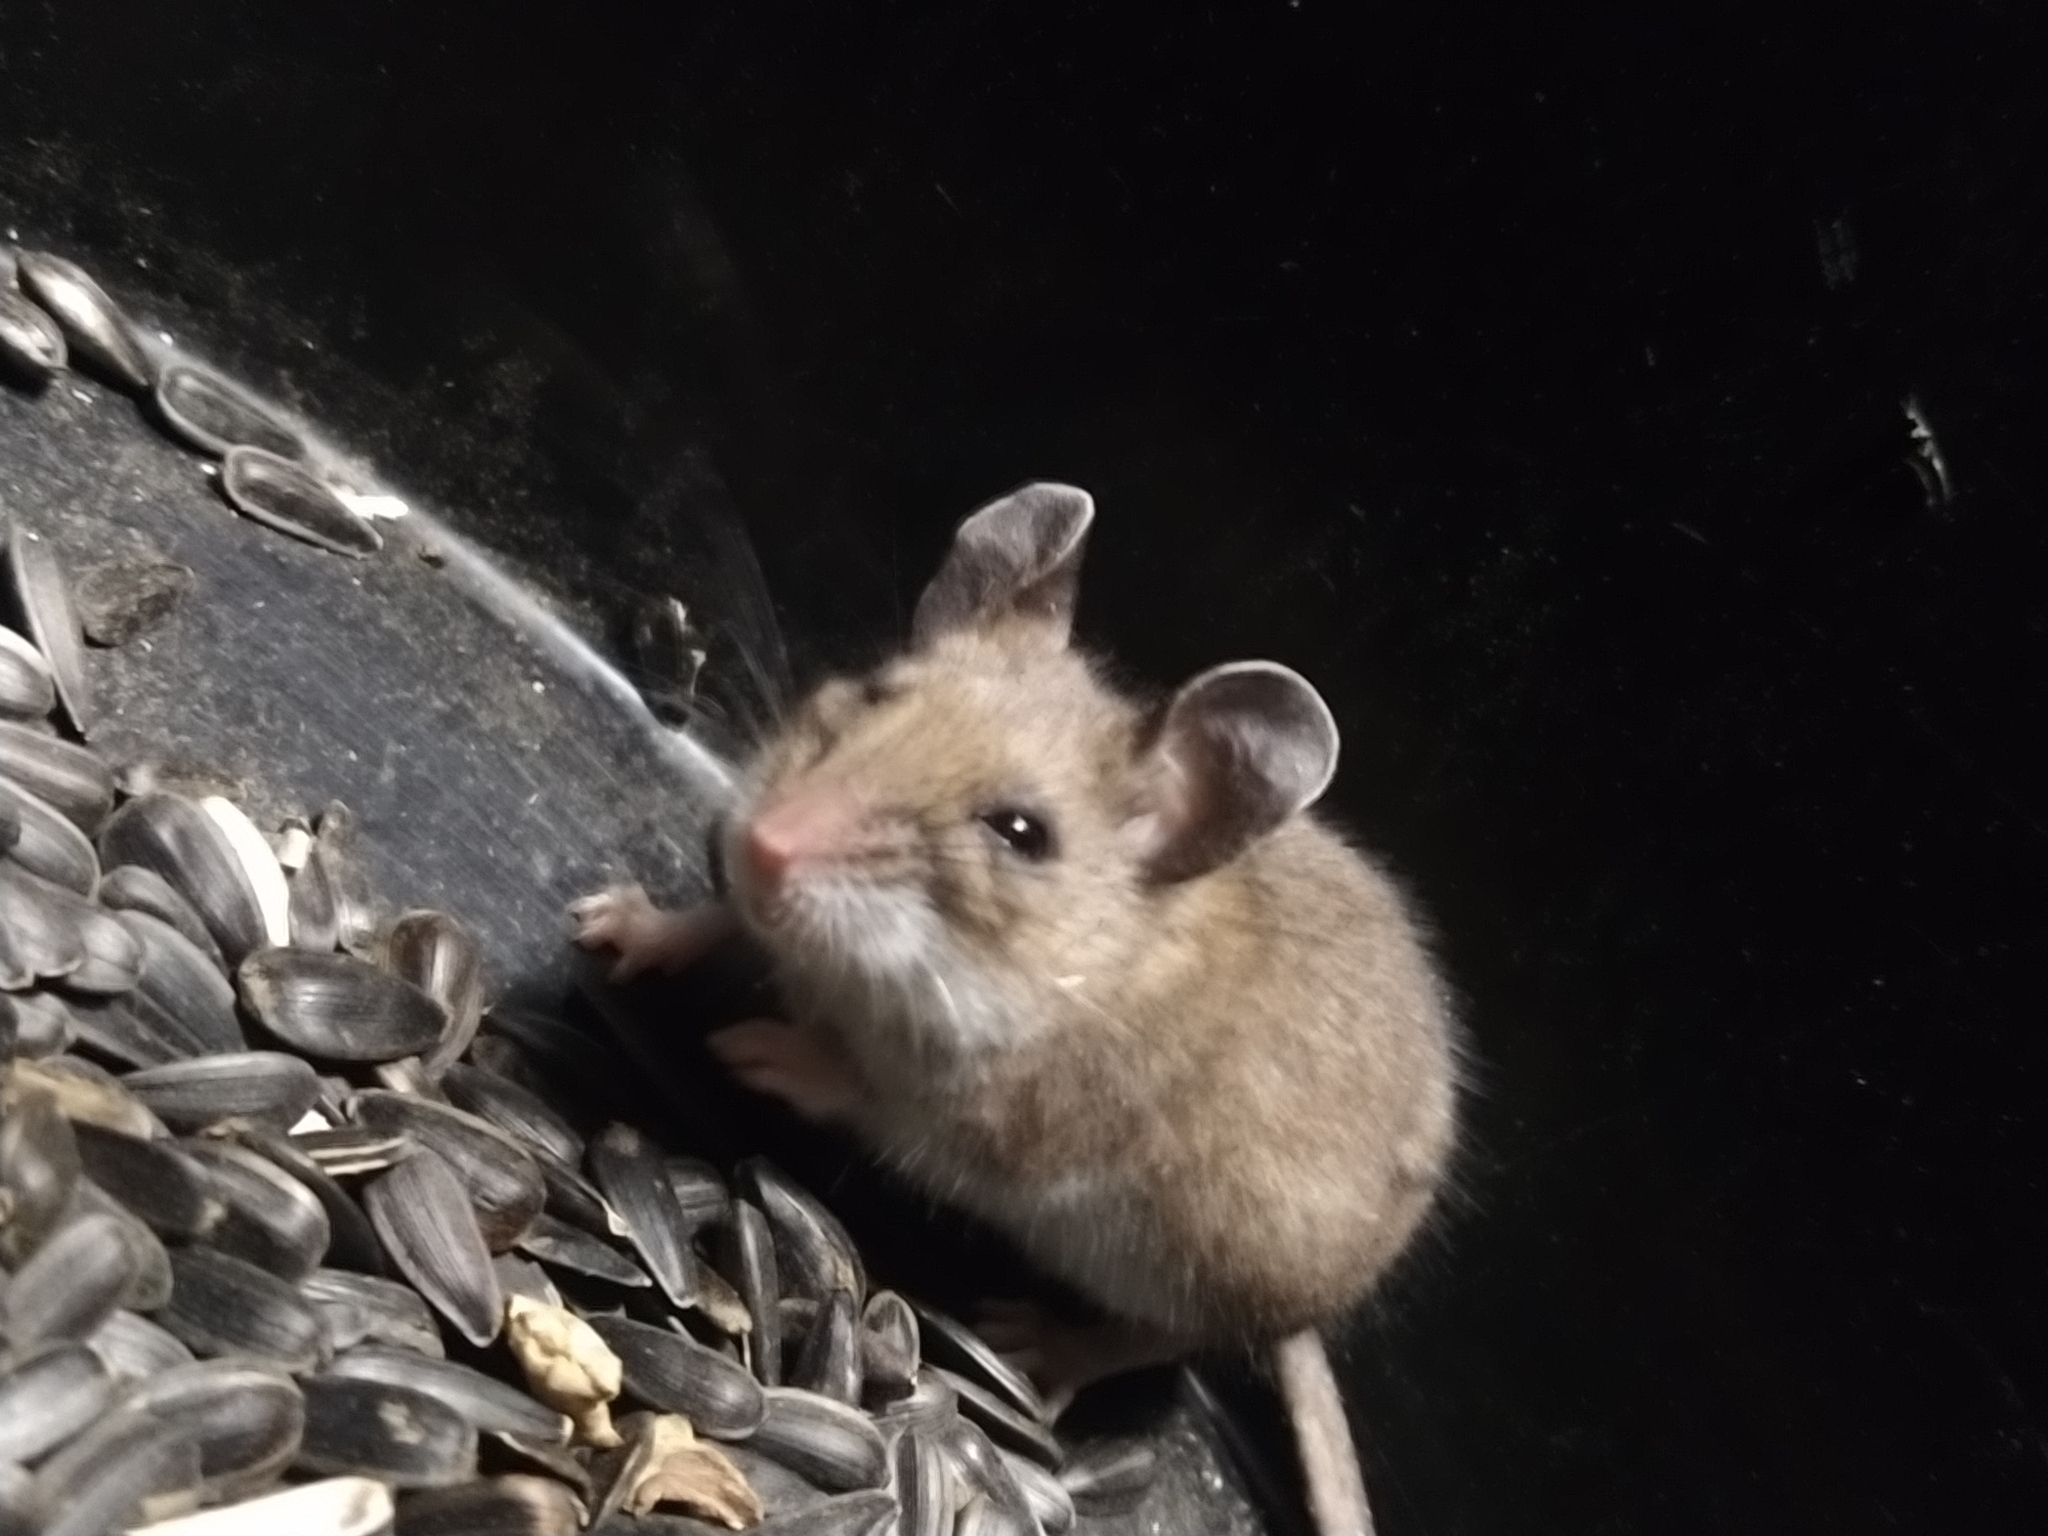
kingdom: Animalia
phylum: Chordata
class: Mammalia
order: Rodentia
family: Cricetidae
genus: Peromyscus
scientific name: Peromyscus maniculatus
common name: Deer mouse
